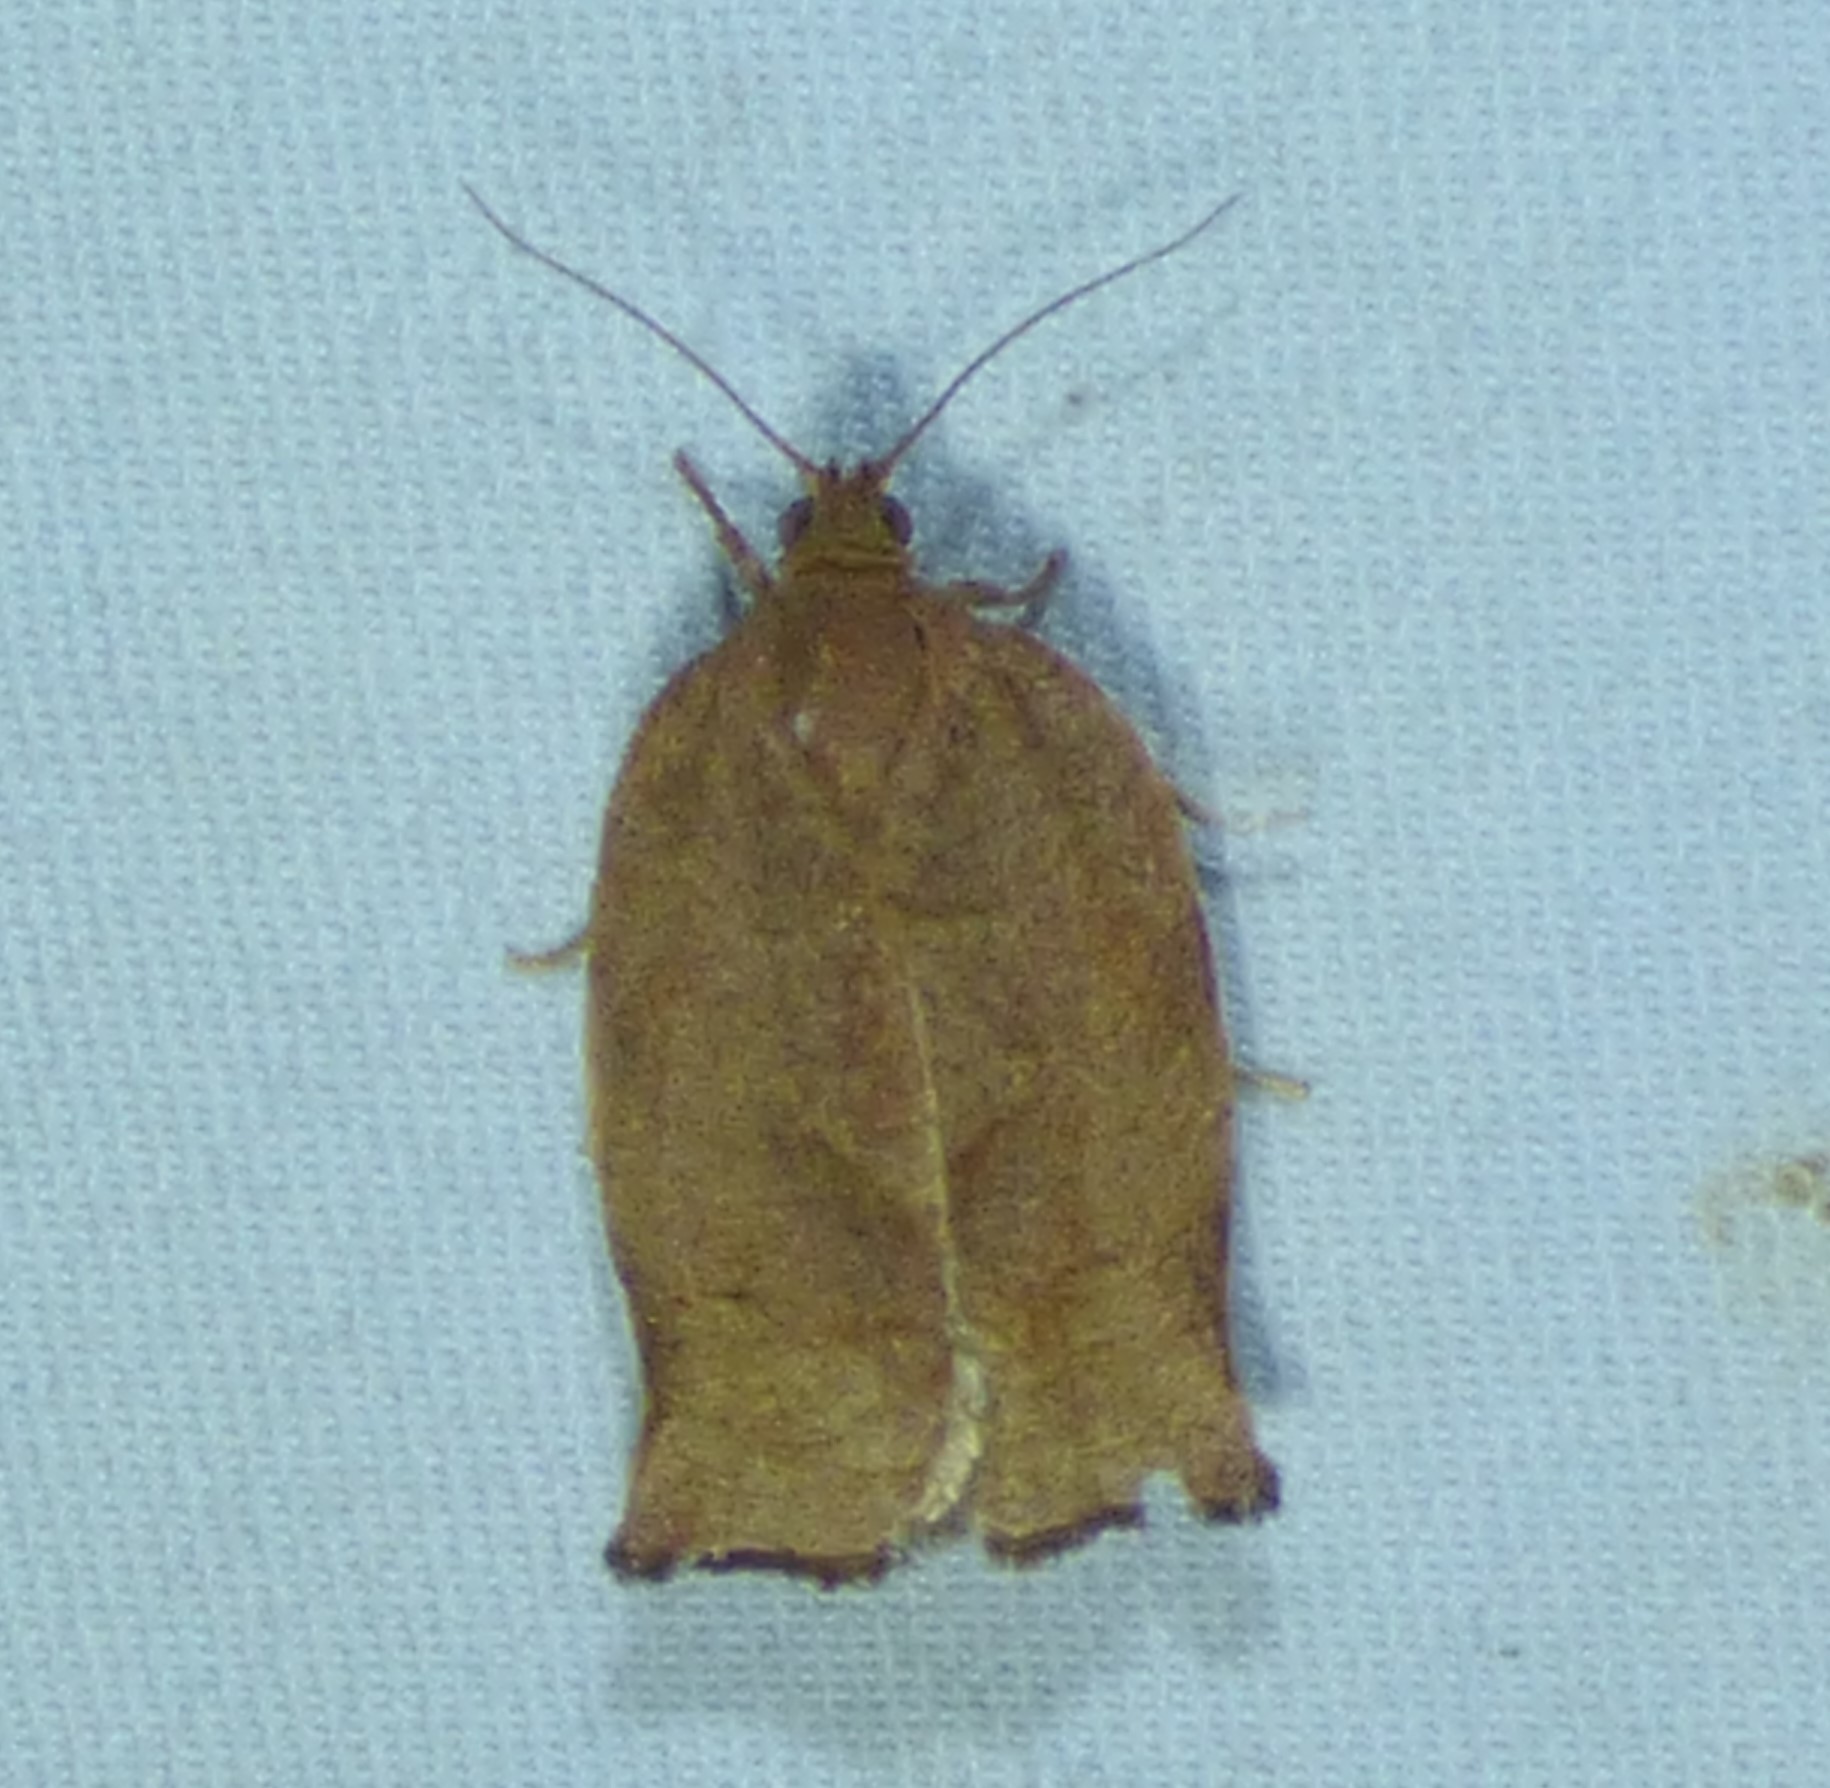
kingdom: Animalia
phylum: Arthropoda
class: Insecta
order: Lepidoptera
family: Tortricidae
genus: Choristoneura
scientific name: Choristoneura rosaceana
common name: Oblique-banded leafroller moth
